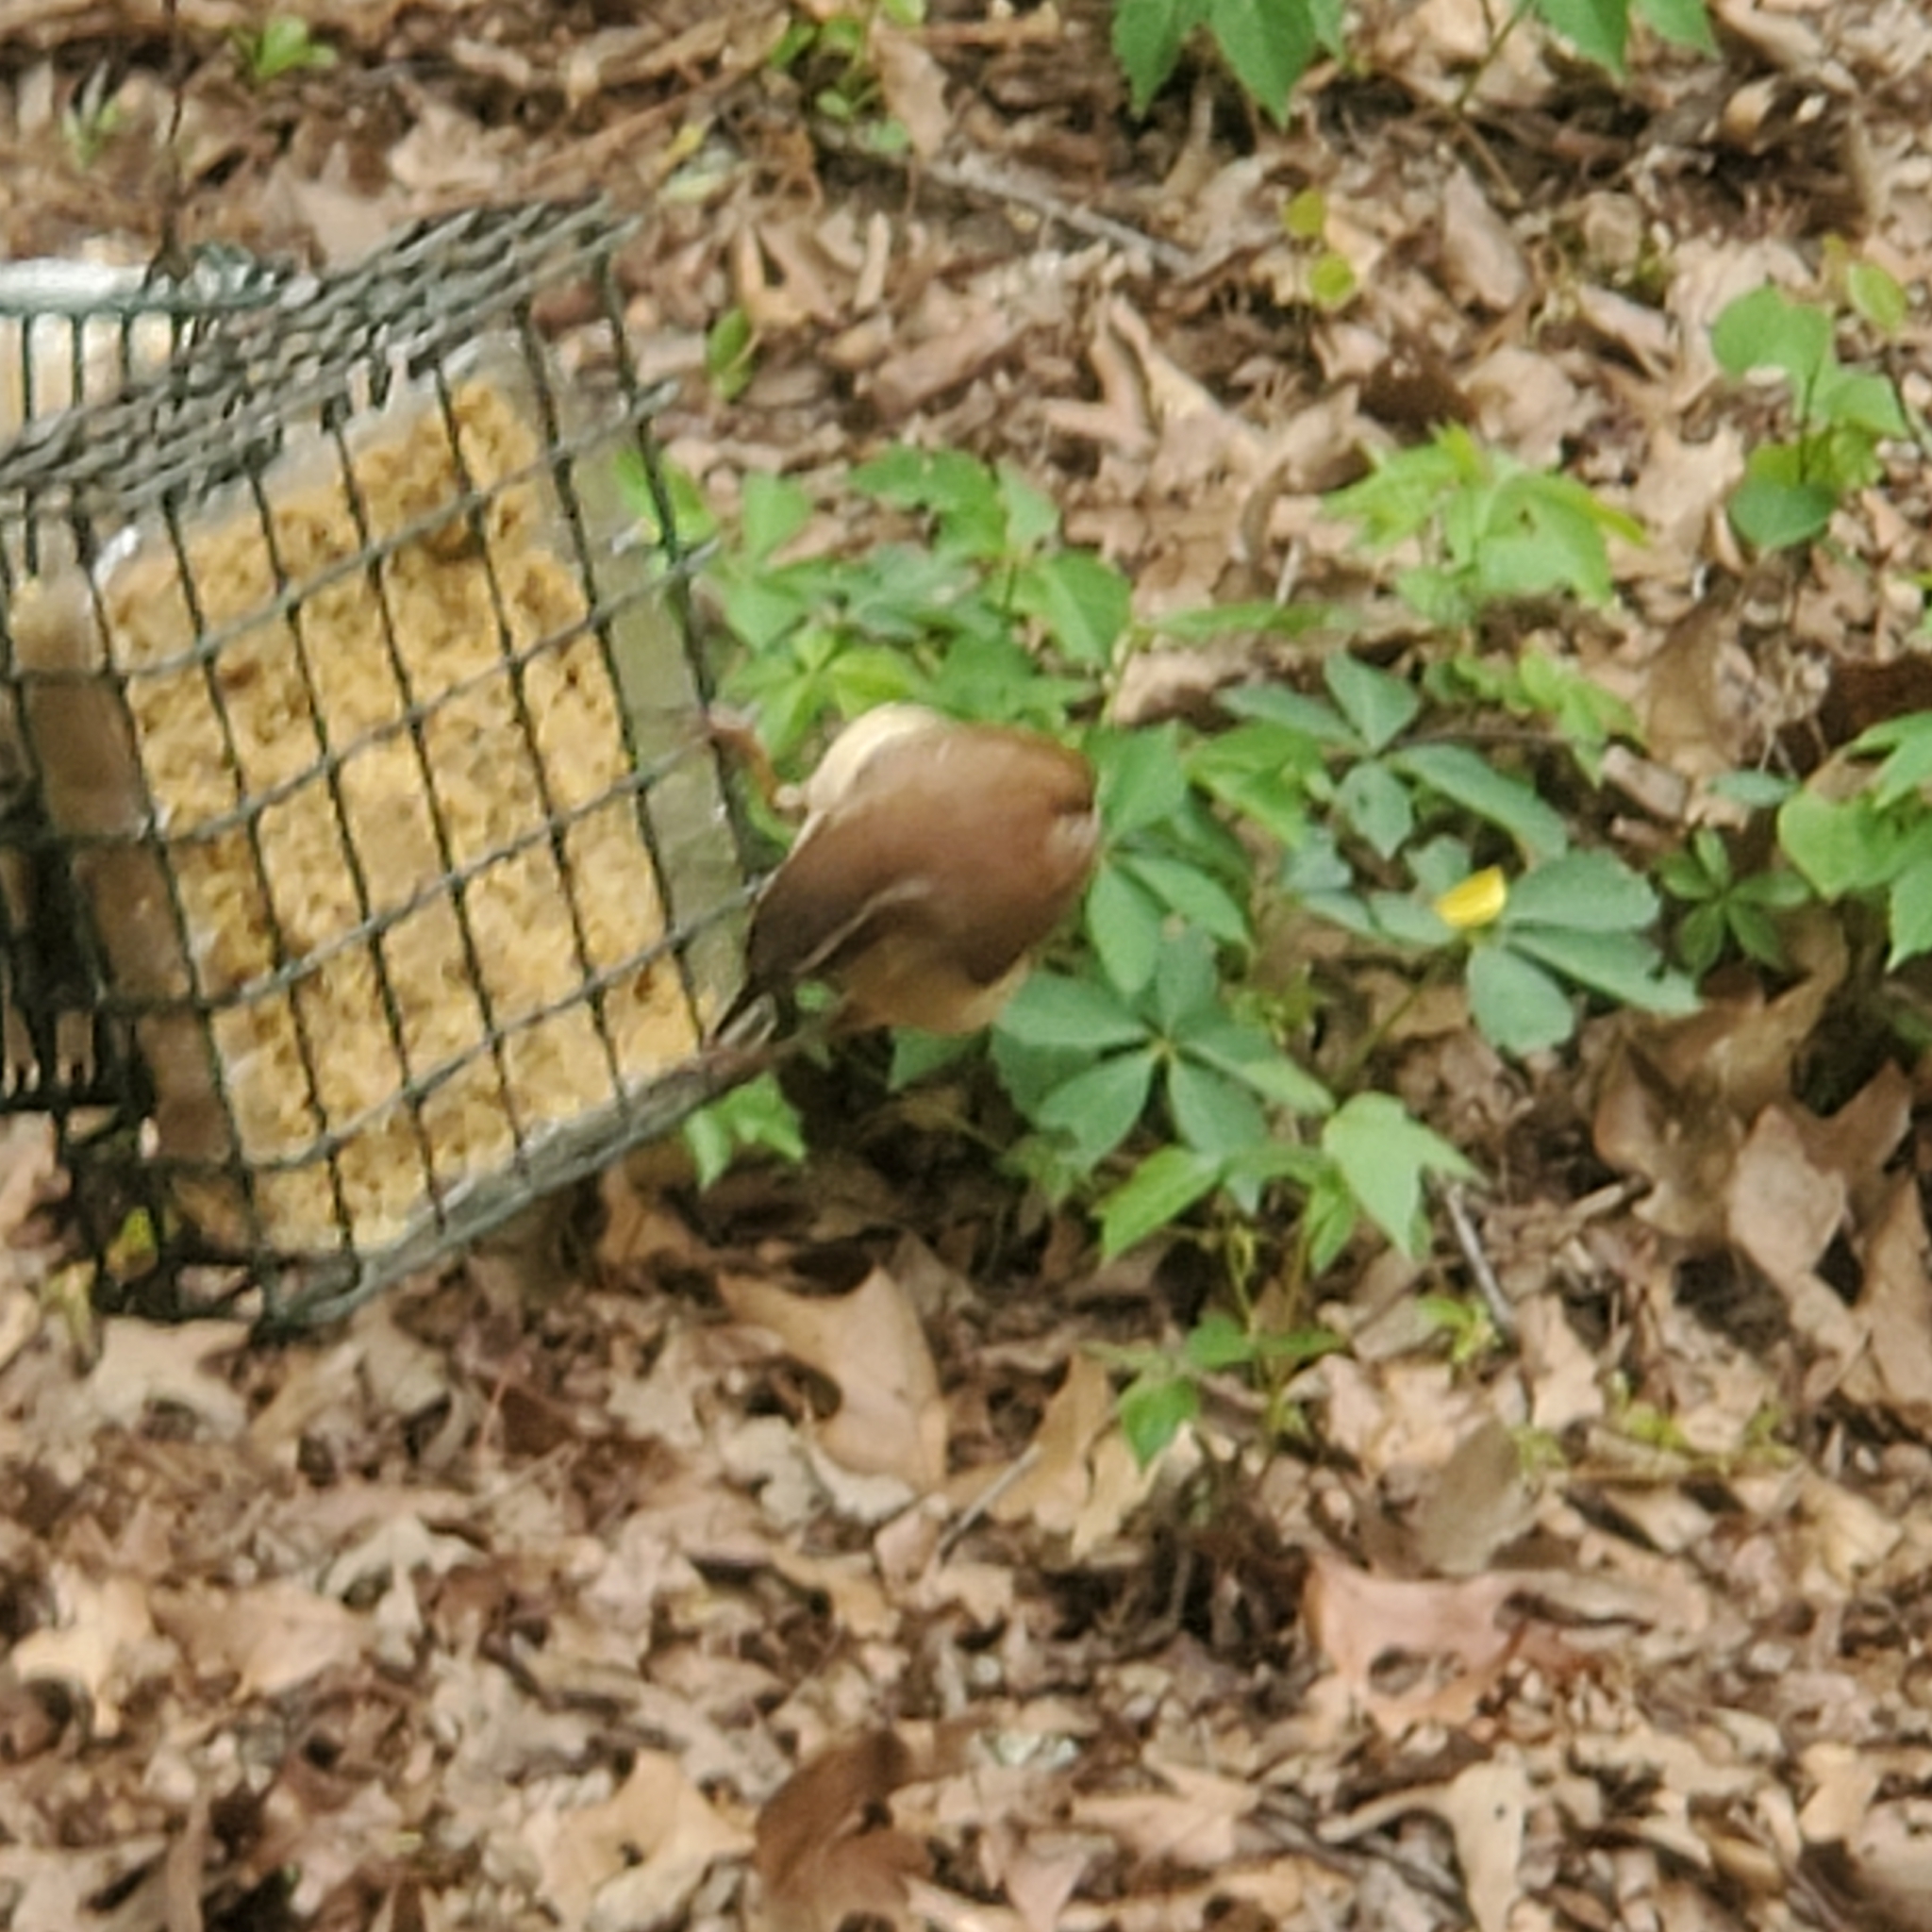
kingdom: Animalia
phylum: Chordata
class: Aves
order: Passeriformes
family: Troglodytidae
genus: Thryothorus
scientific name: Thryothorus ludovicianus
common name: Carolina wren
